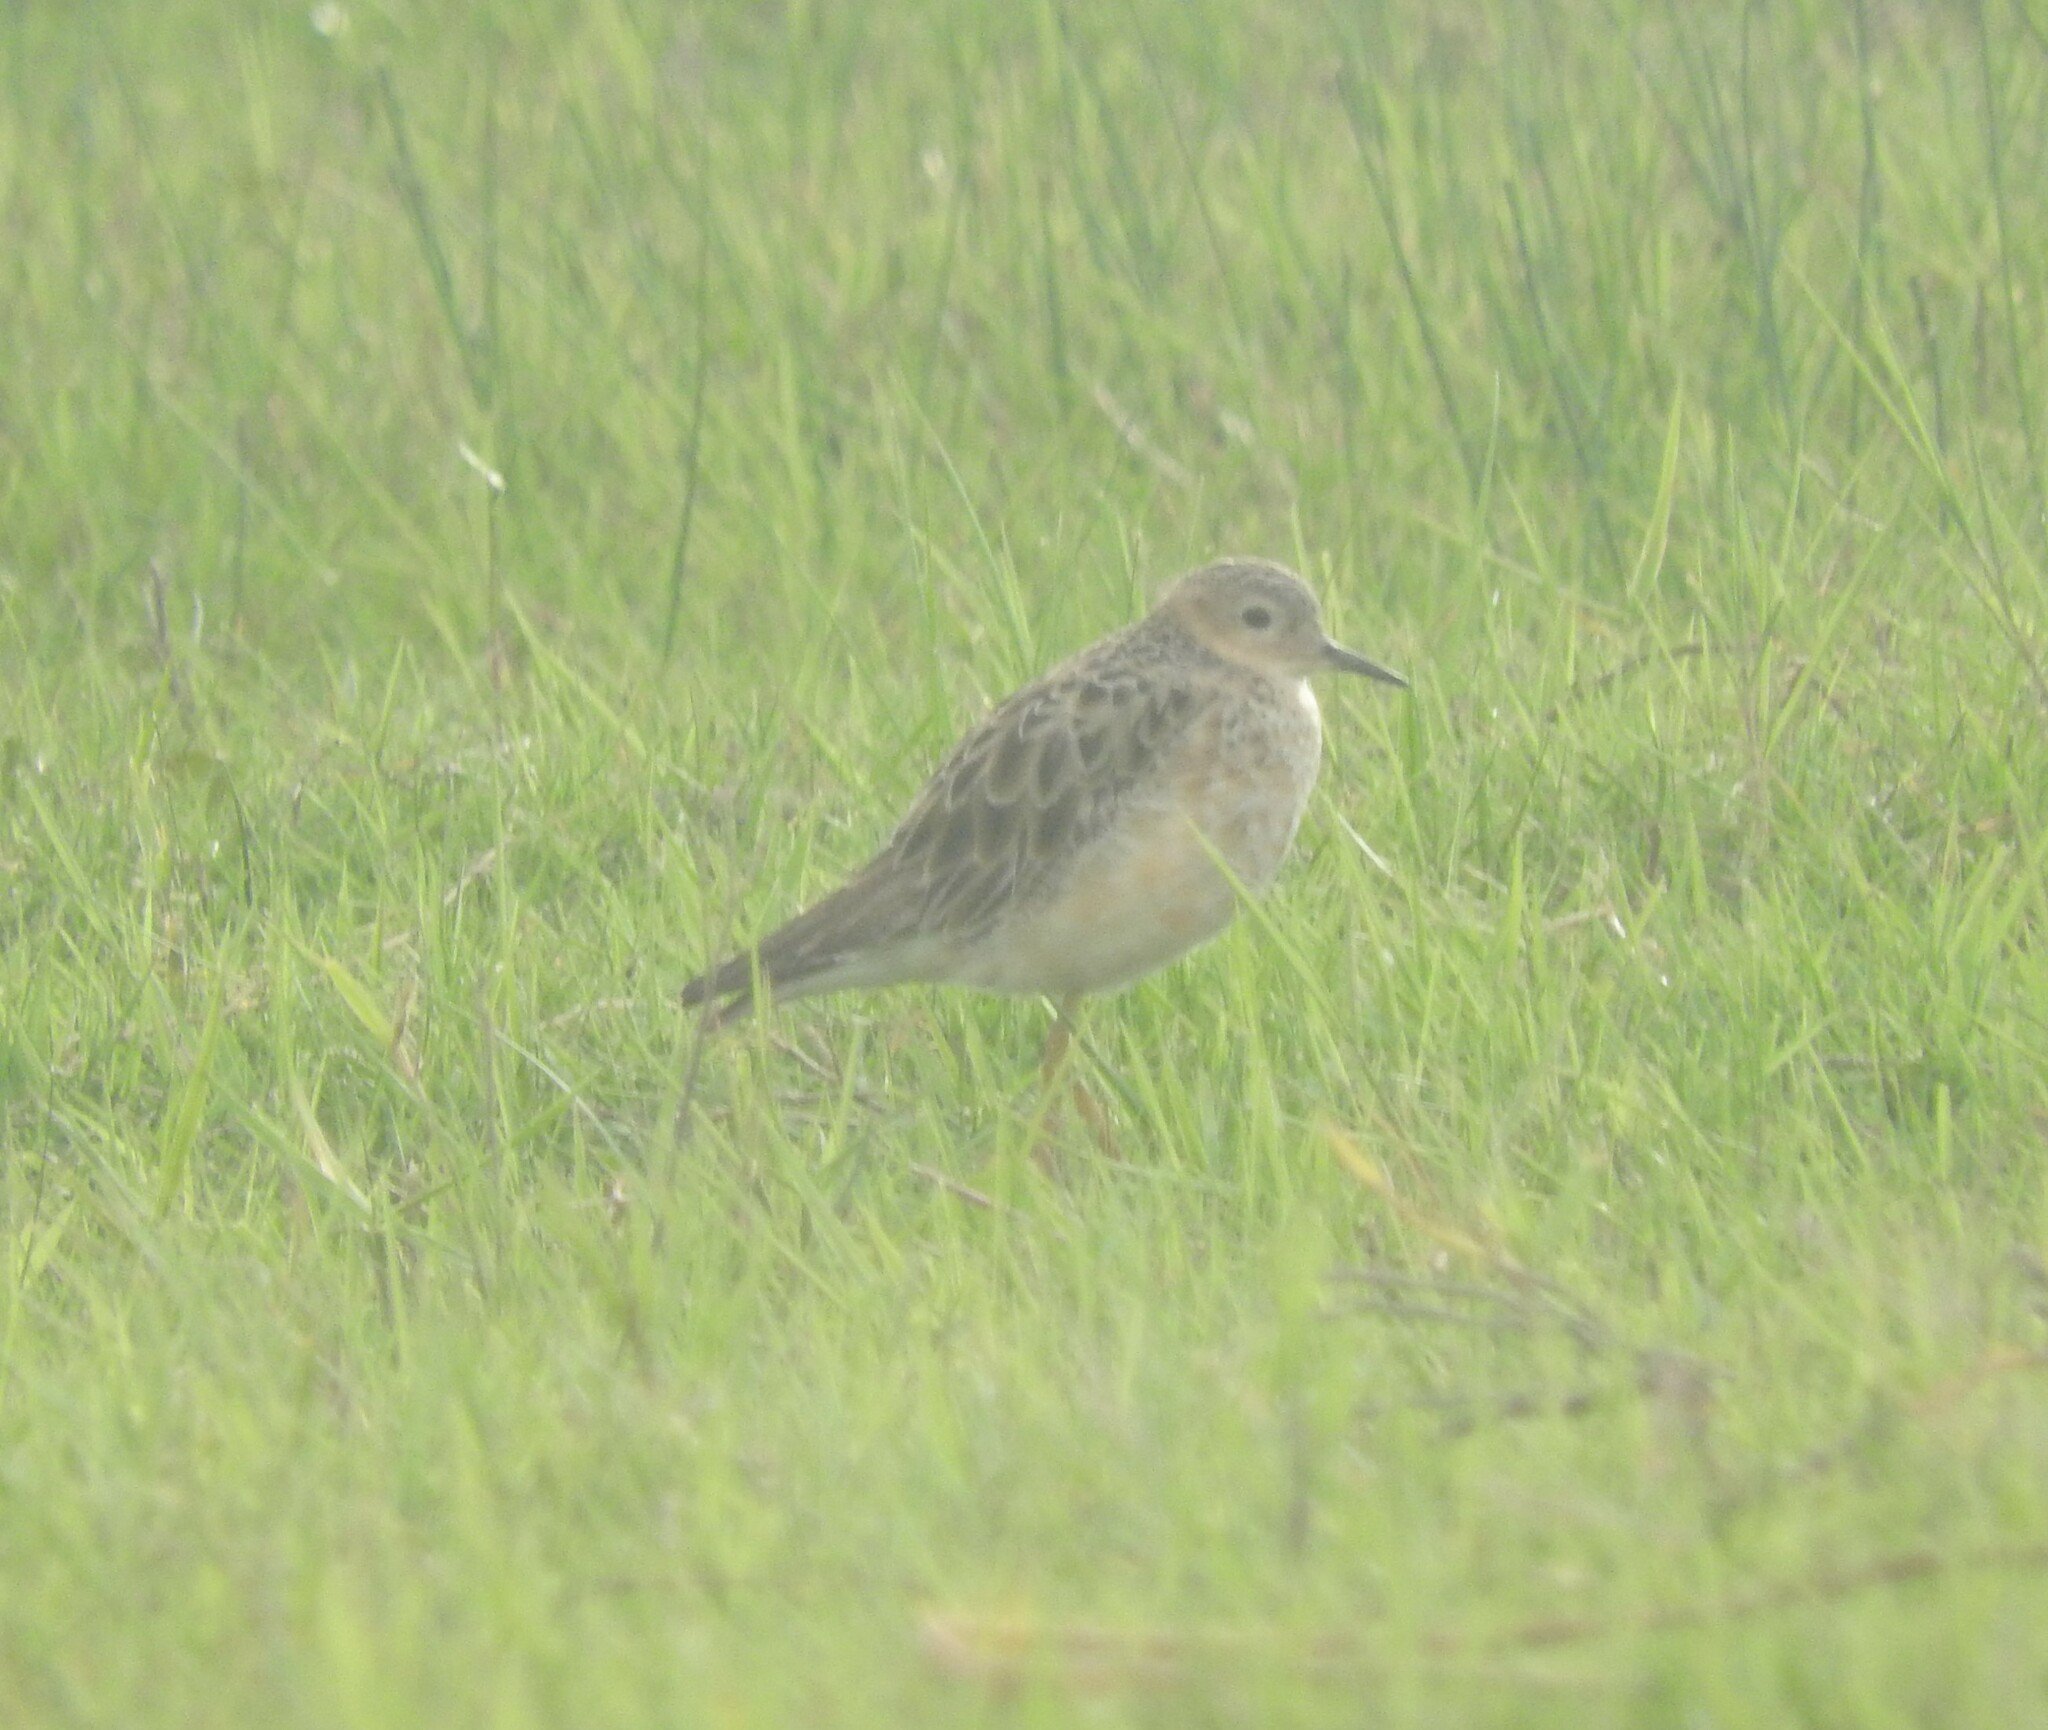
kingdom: Animalia
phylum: Chordata
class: Aves
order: Charadriiformes
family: Scolopacidae
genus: Calidris
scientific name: Calidris subruficollis
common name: Buff-breasted sandpiper
